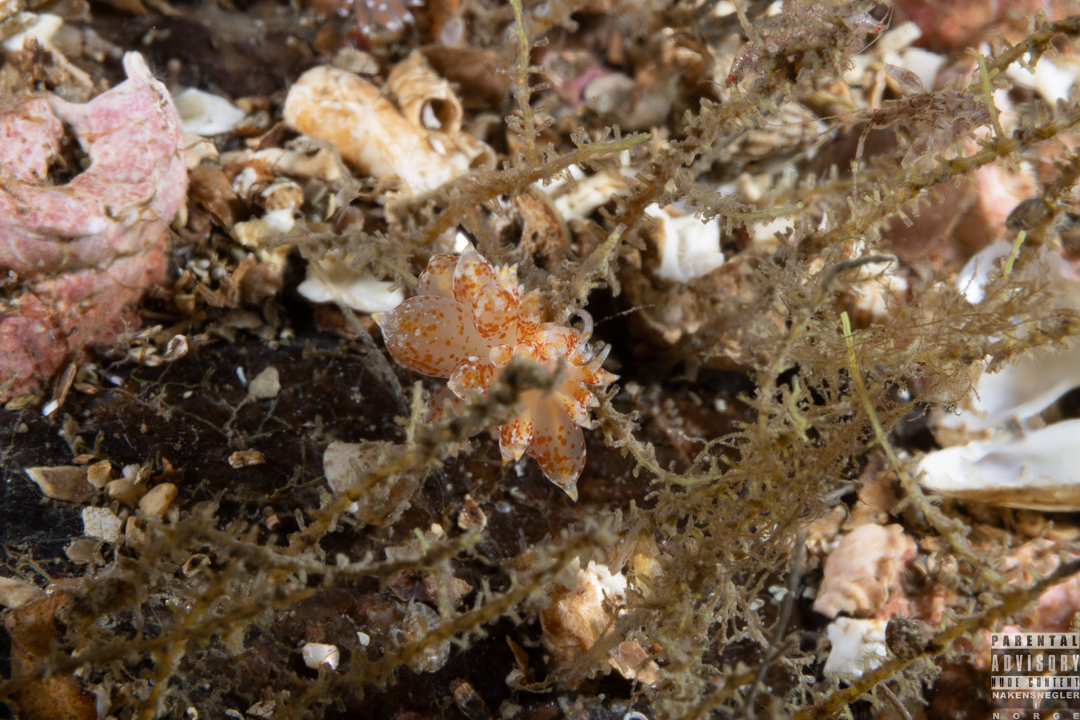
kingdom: Animalia
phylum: Mollusca
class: Gastropoda
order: Nudibranchia
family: Eubranchidae
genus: Amphorina
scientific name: Amphorina pallida
